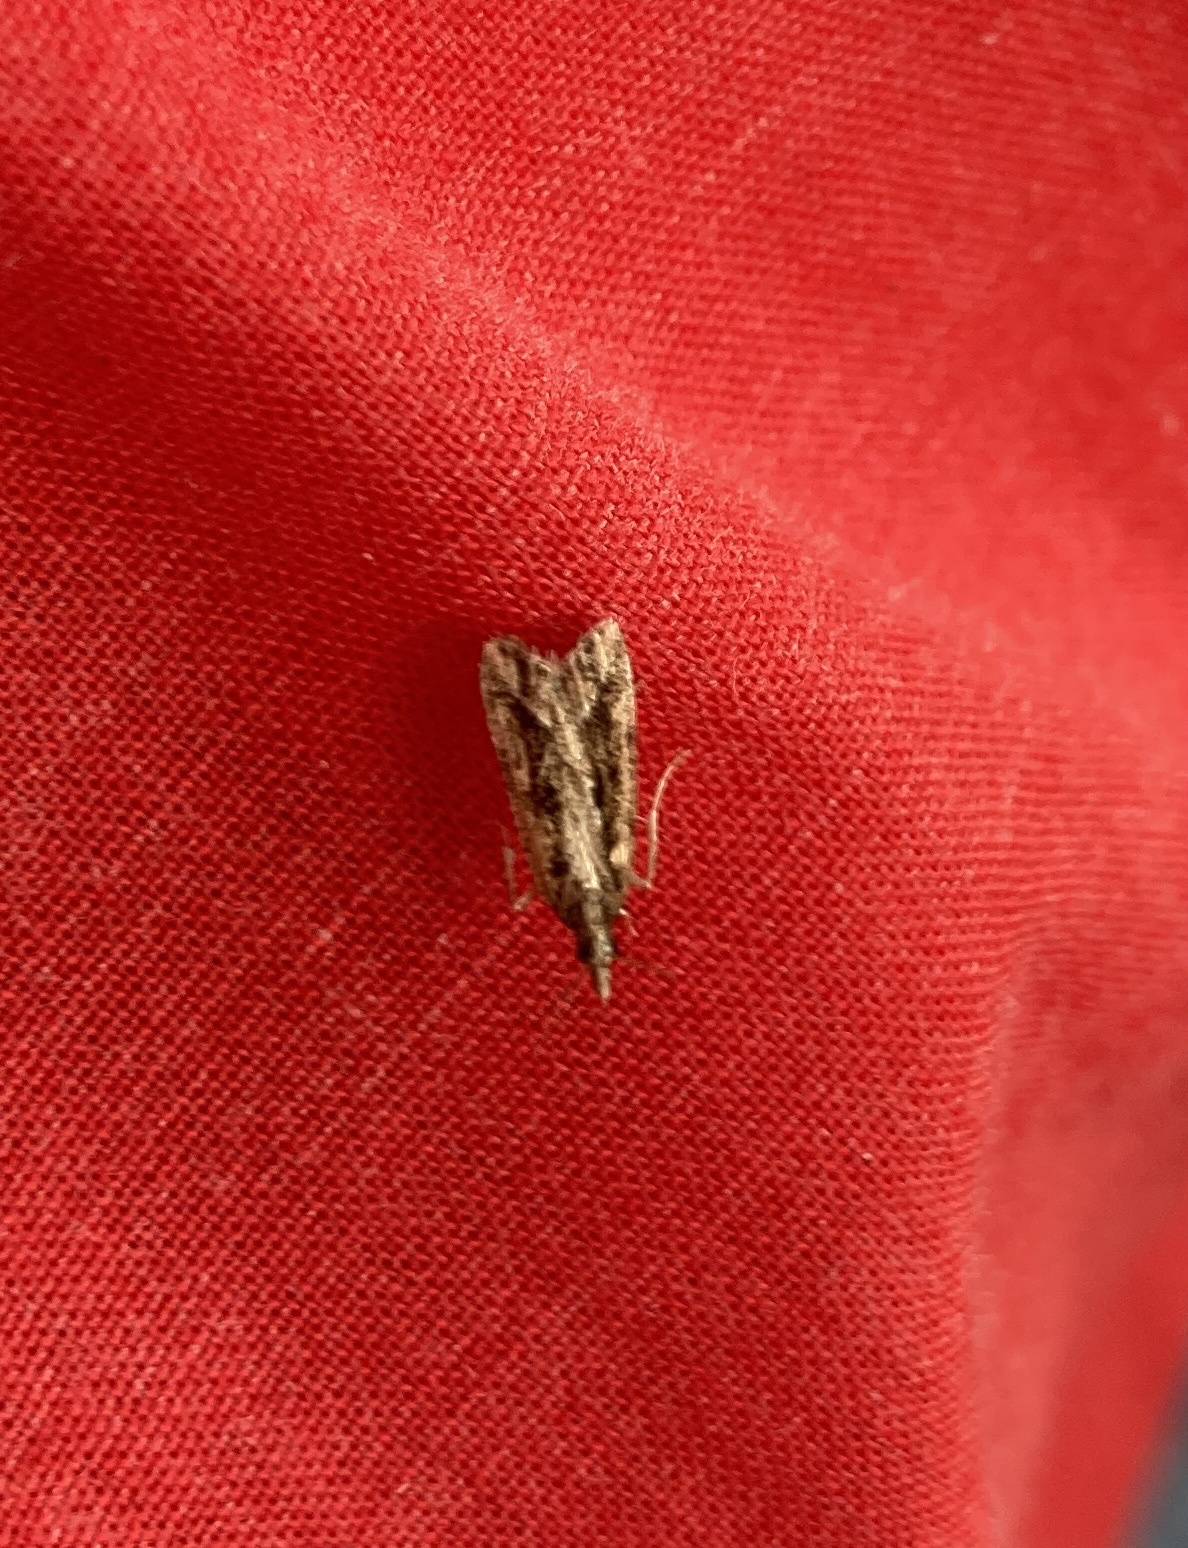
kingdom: Animalia
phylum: Arthropoda
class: Insecta
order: Lepidoptera
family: Crambidae
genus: Eudonia
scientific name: Eudonia steropaea
